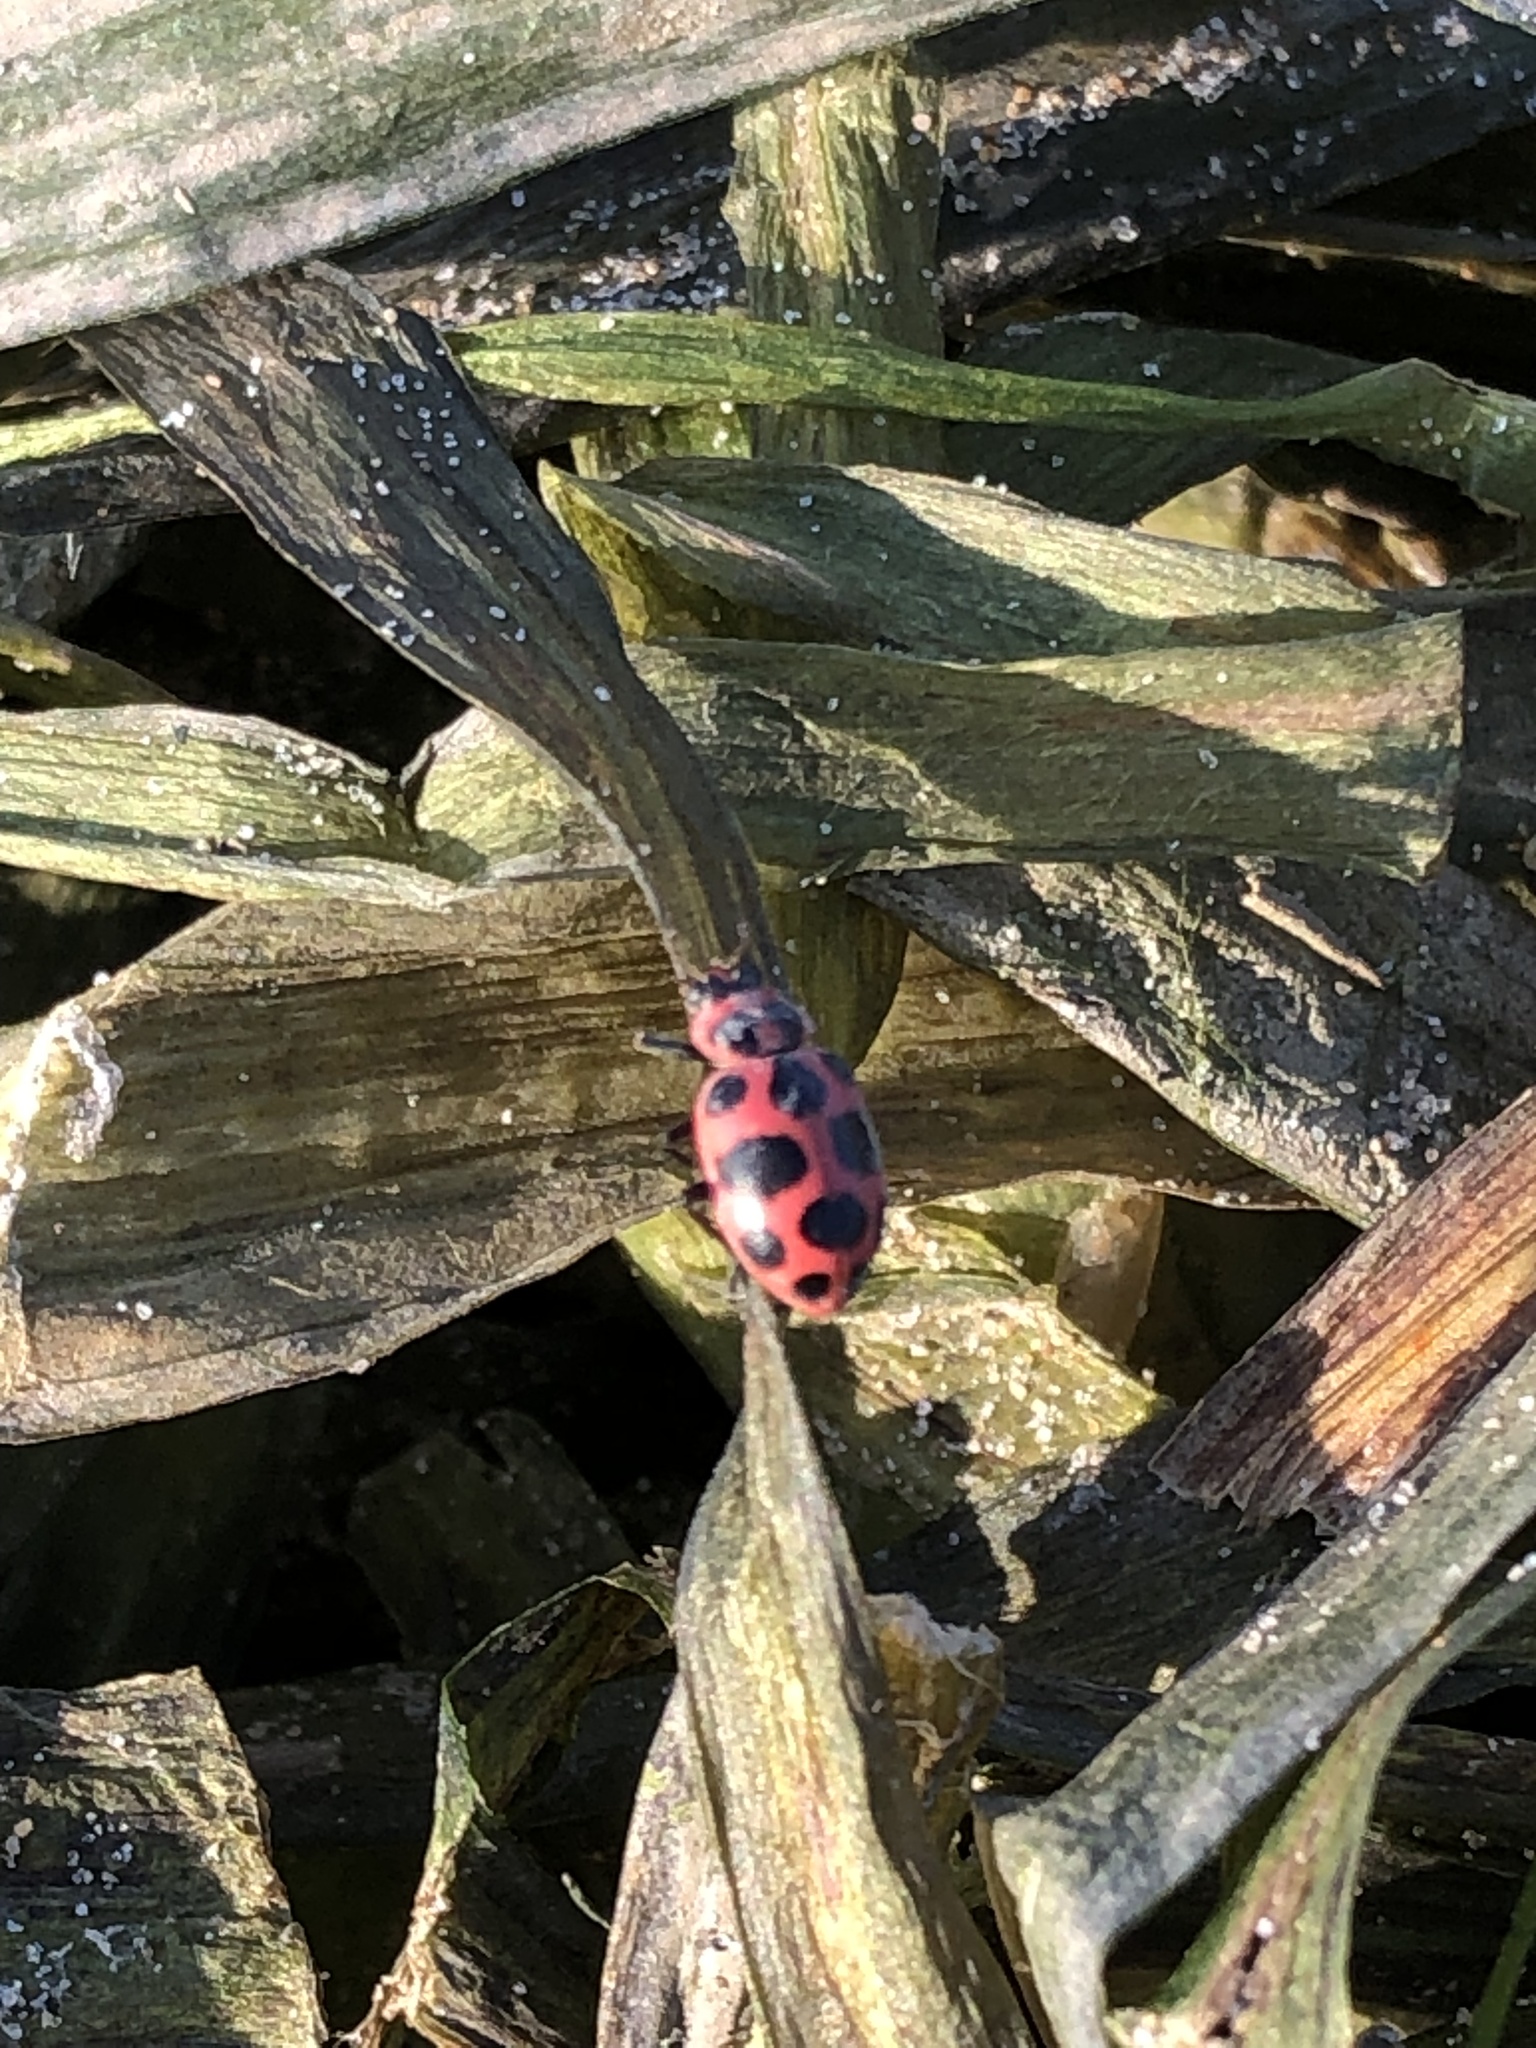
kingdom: Animalia
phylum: Arthropoda
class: Insecta
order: Coleoptera
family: Coccinellidae
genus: Coleomegilla
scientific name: Coleomegilla maculata
